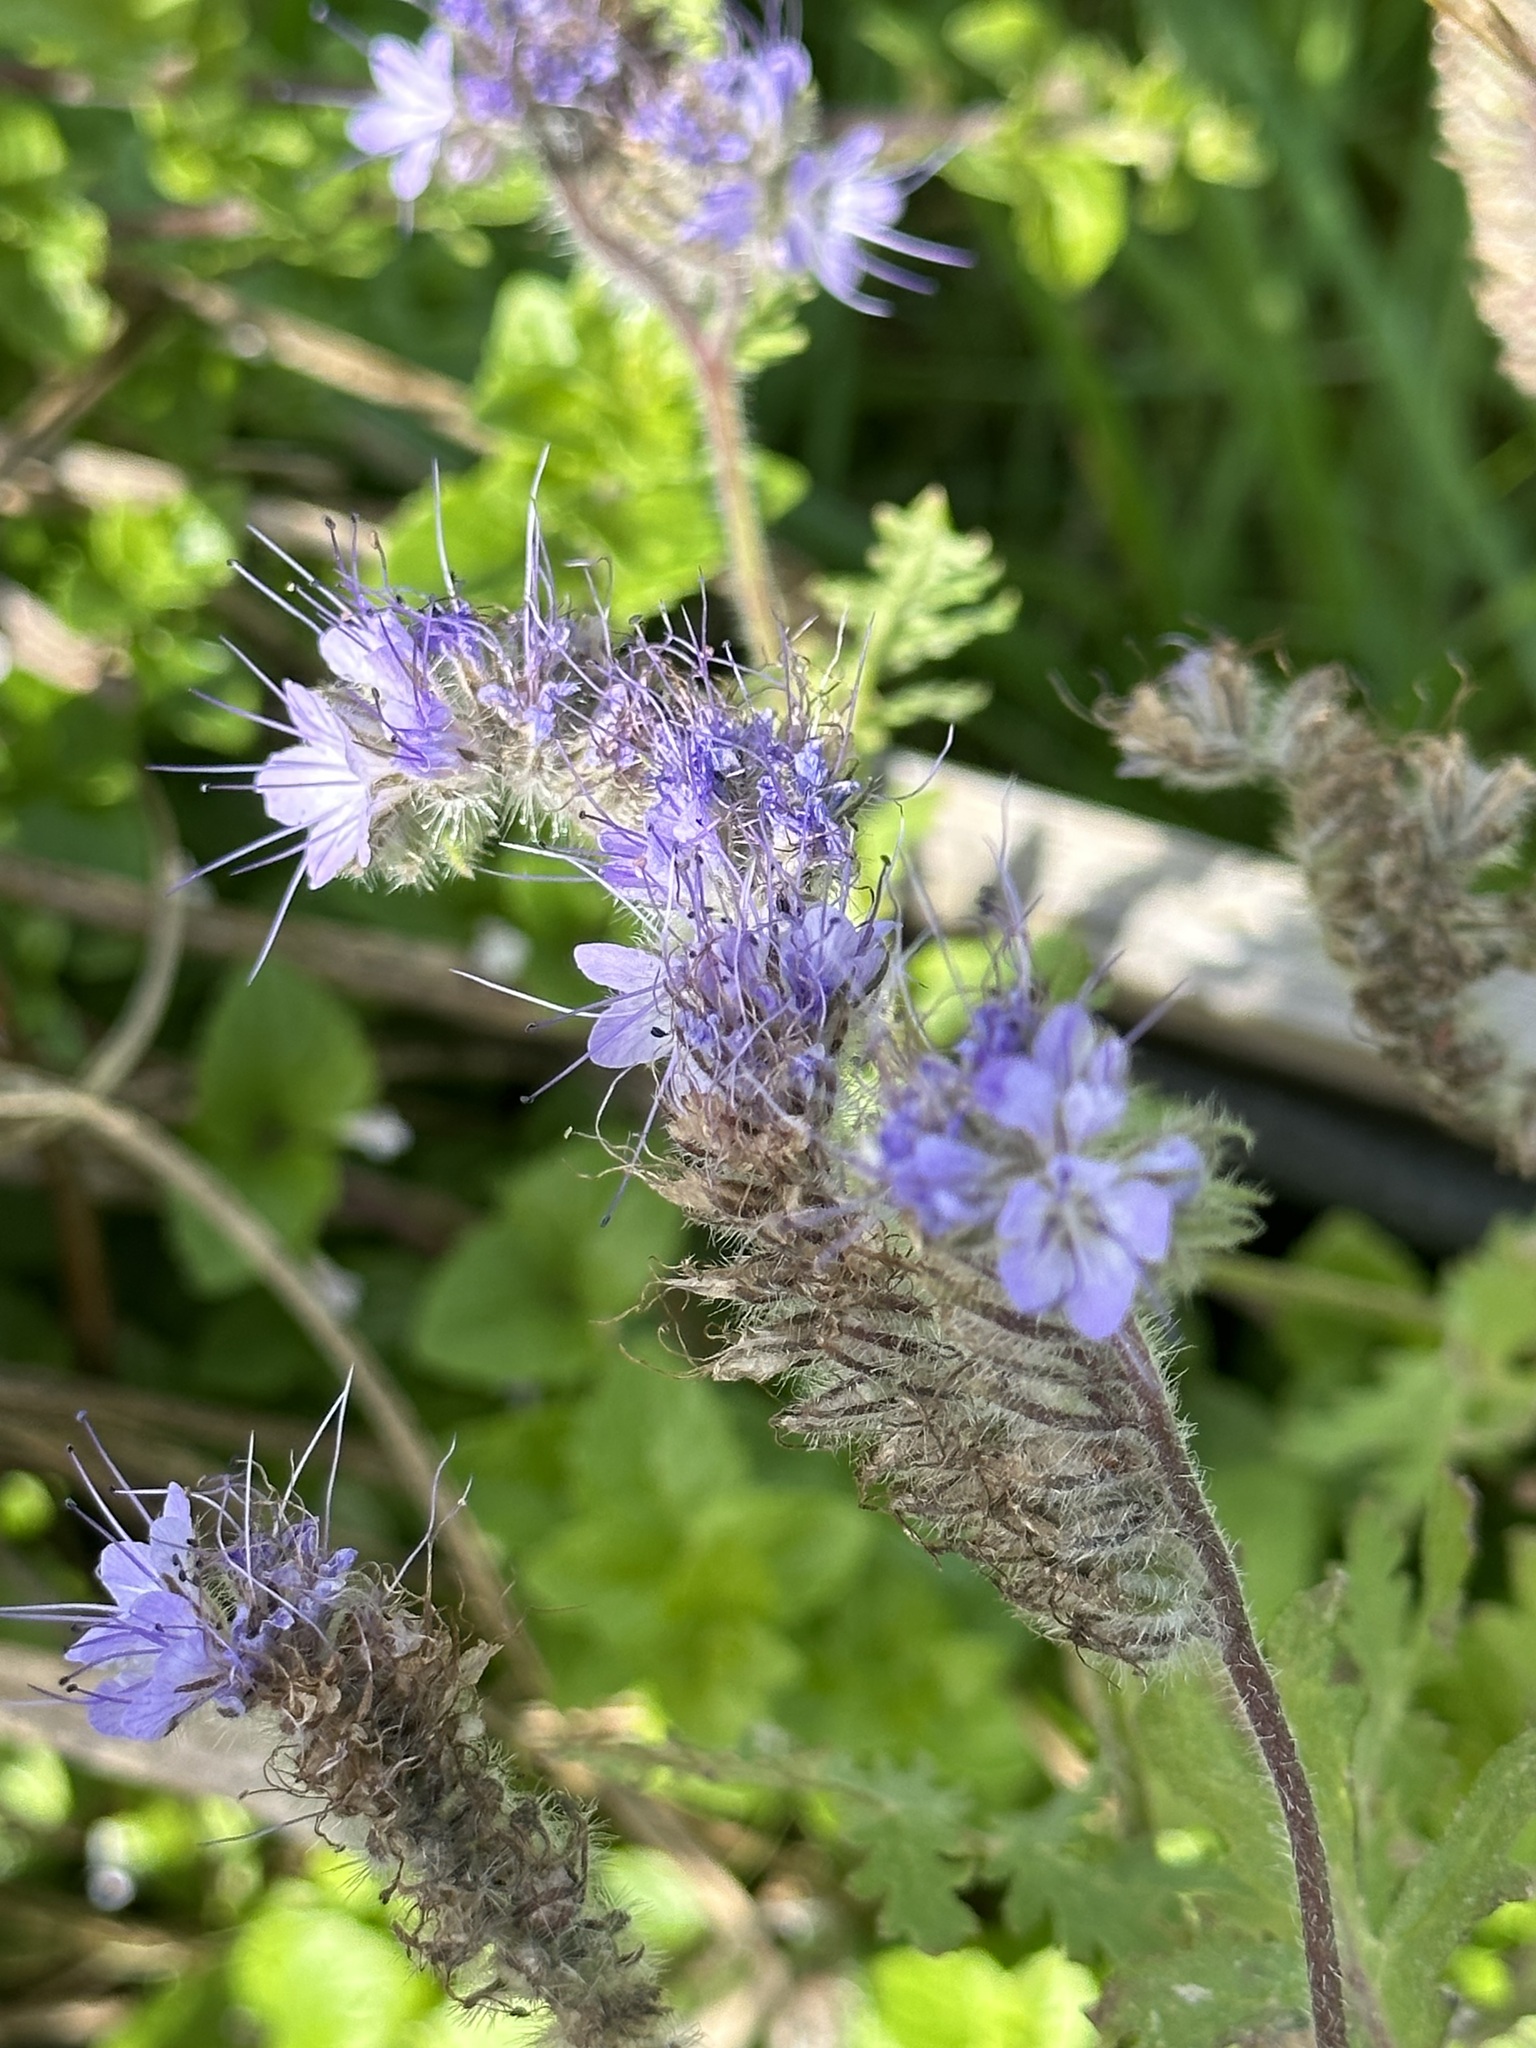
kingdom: Plantae
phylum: Tracheophyta
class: Magnoliopsida
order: Boraginales
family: Hydrophyllaceae
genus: Phacelia
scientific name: Phacelia tanacetifolia
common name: Phacelia
